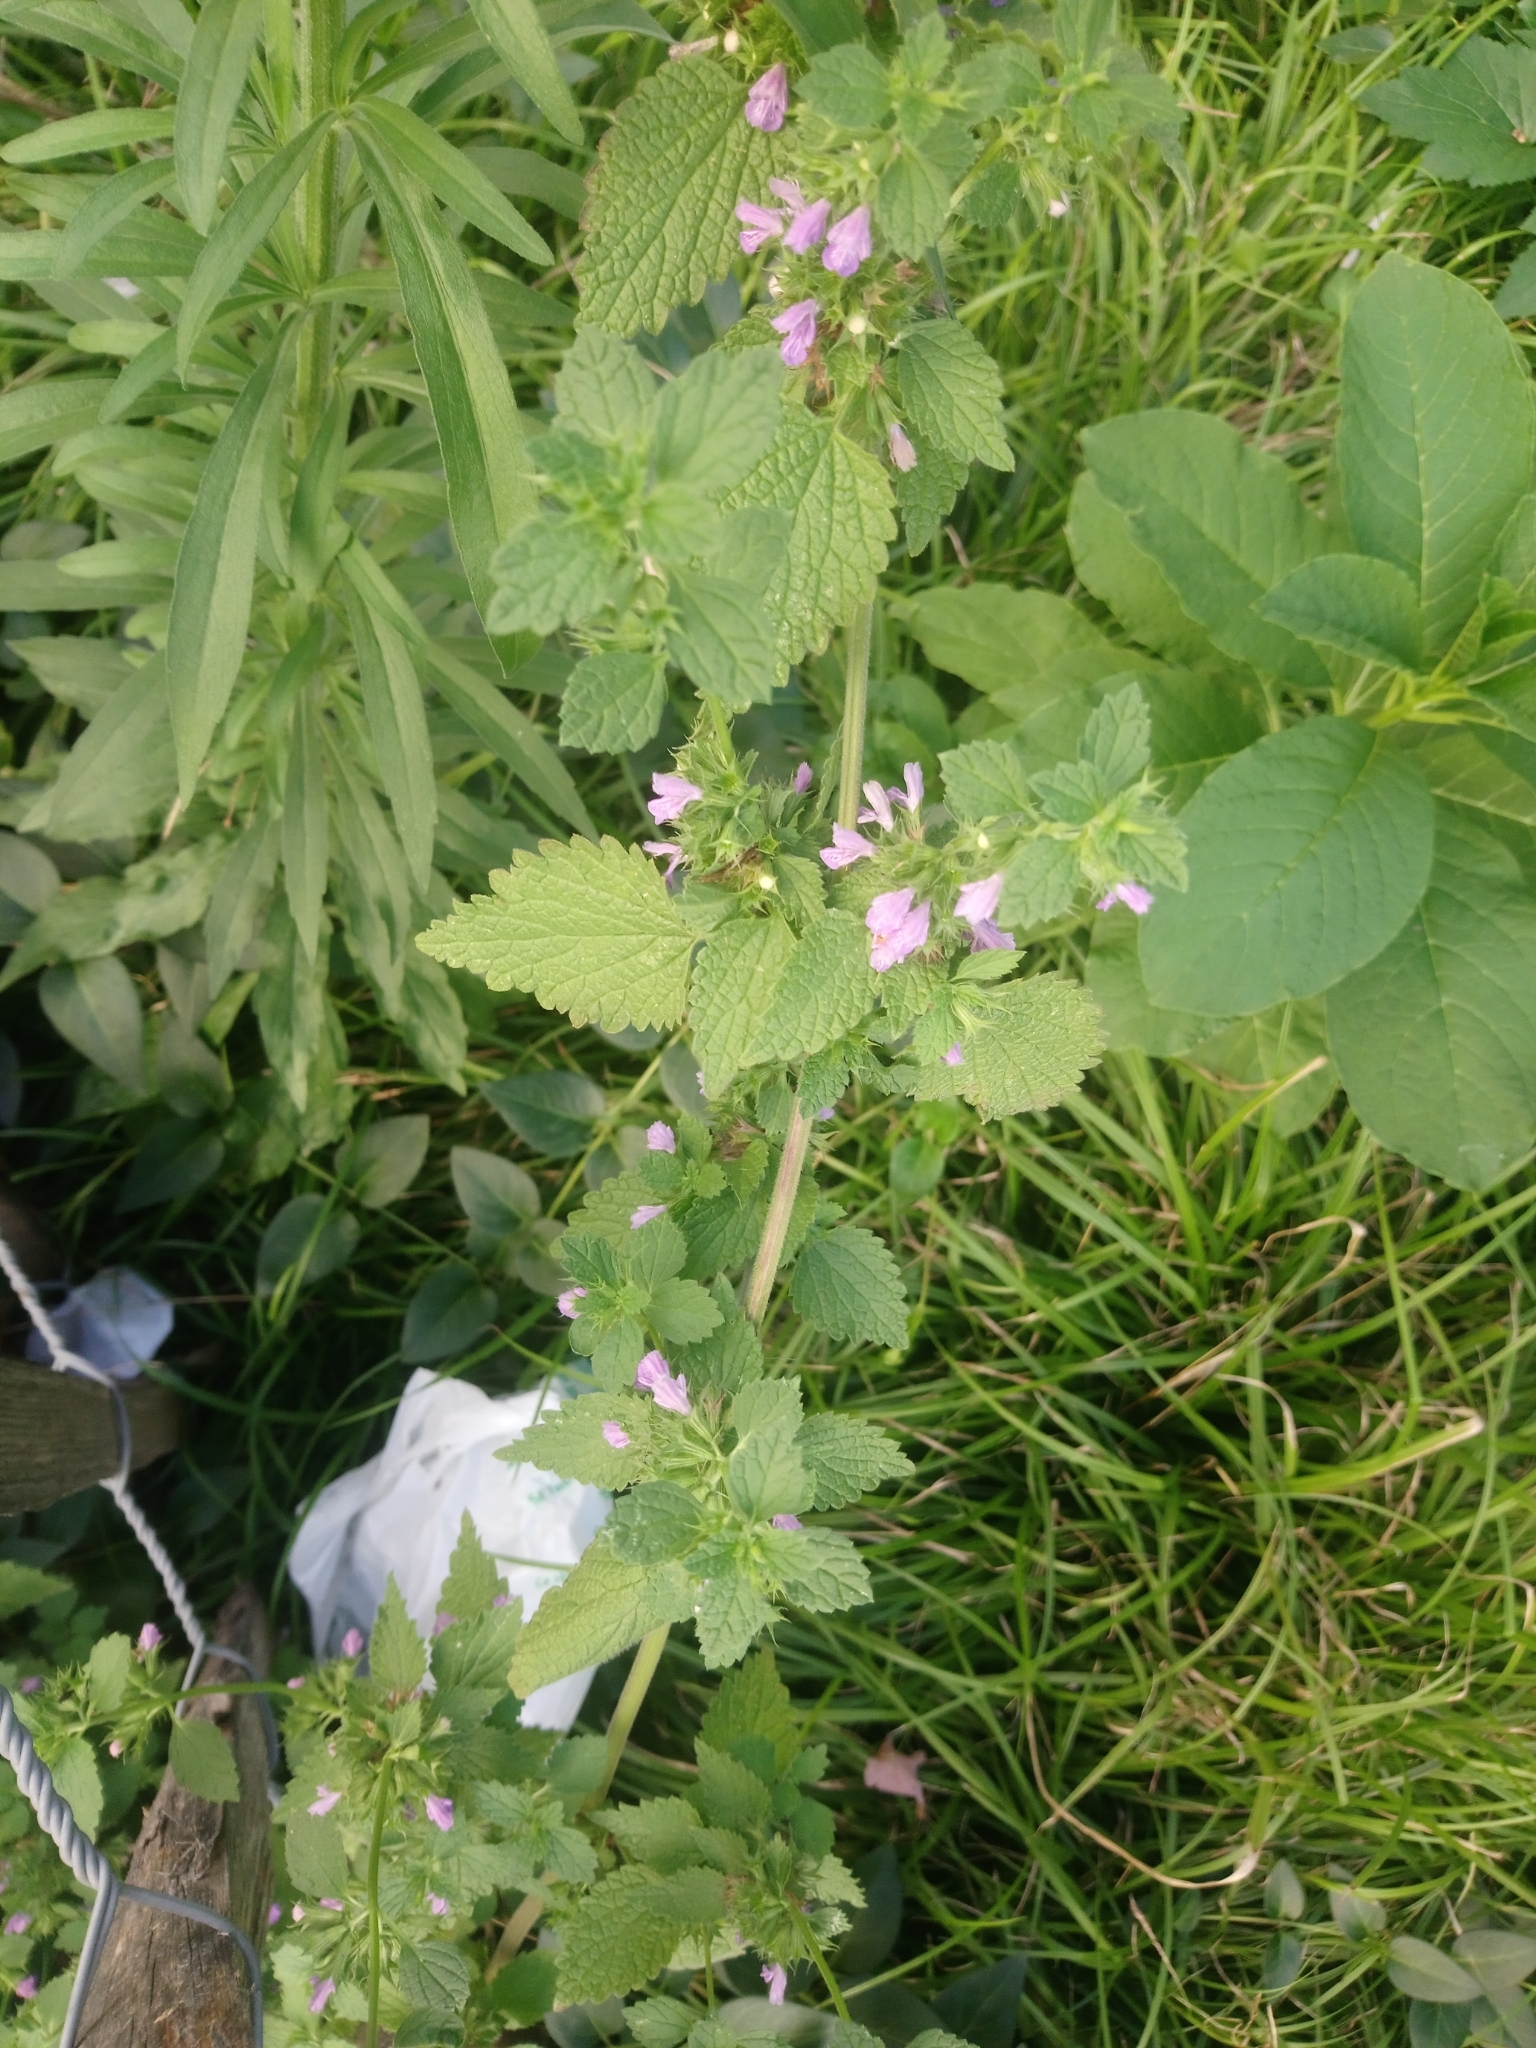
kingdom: Plantae
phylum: Tracheophyta
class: Magnoliopsida
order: Lamiales
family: Lamiaceae
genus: Ballota
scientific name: Ballota nigra
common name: Black horehound
